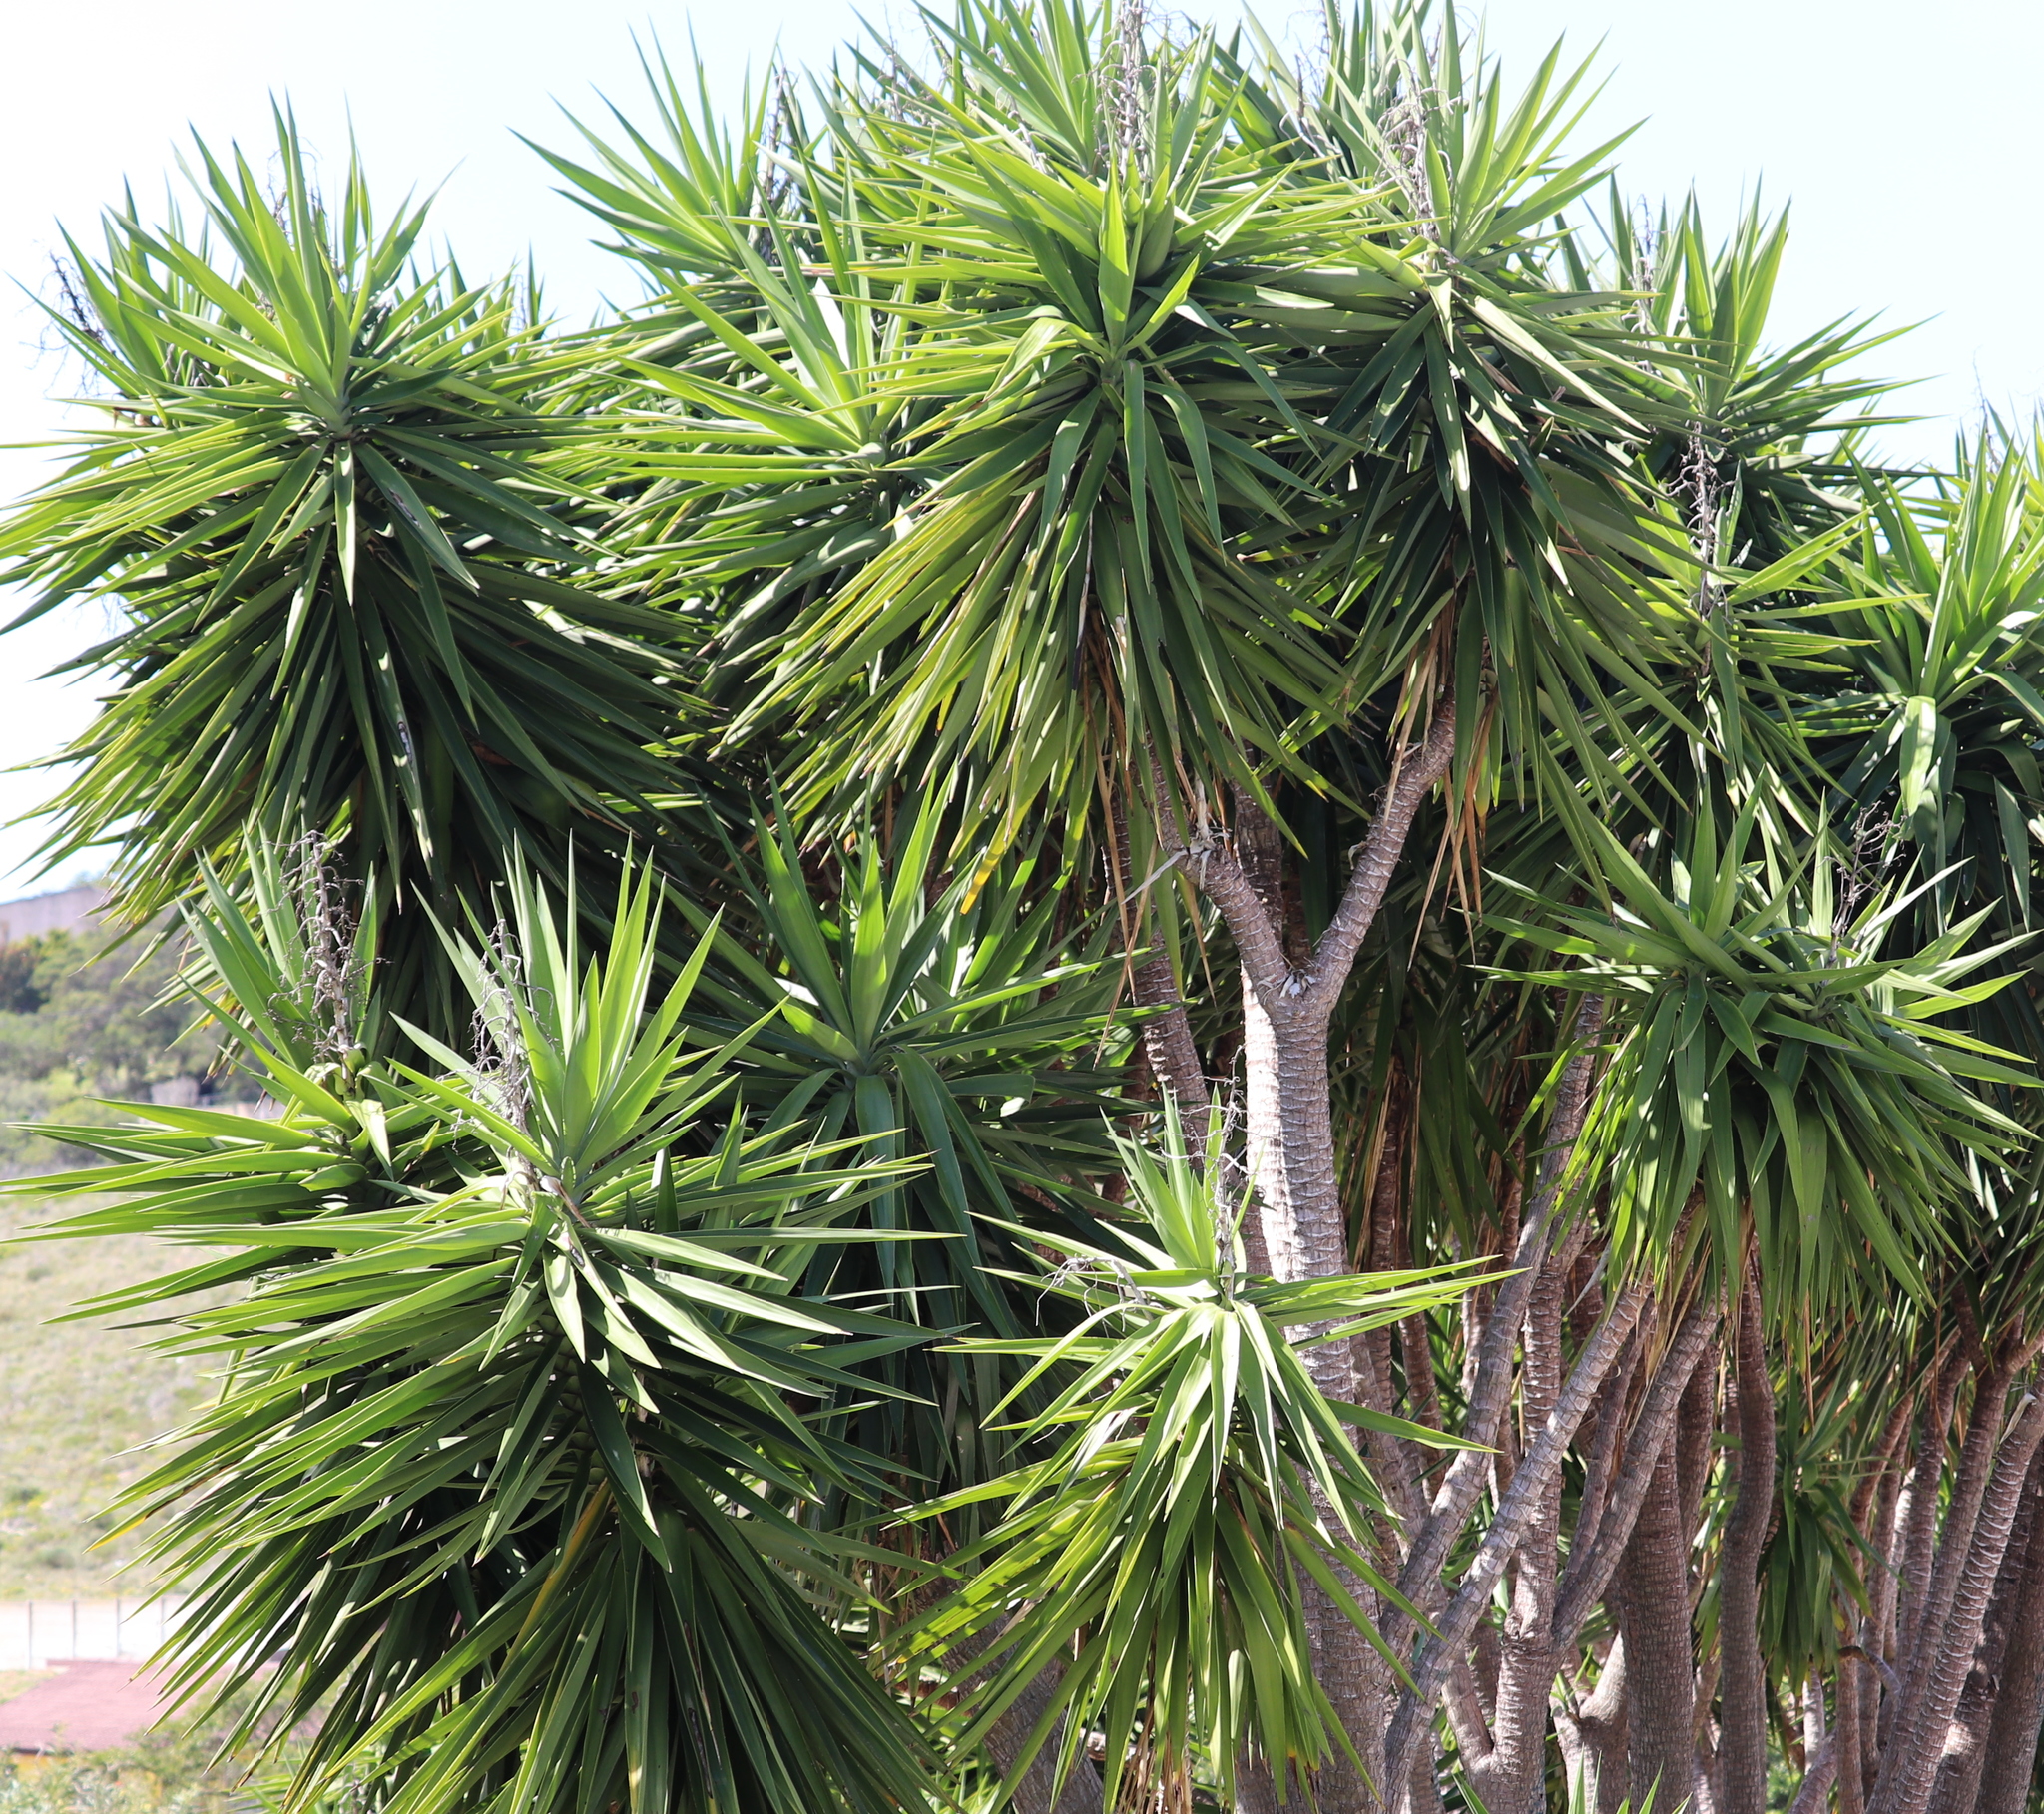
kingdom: Plantae
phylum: Tracheophyta
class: Liliopsida
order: Asparagales
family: Asparagaceae
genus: Yucca
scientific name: Yucca gigantea
